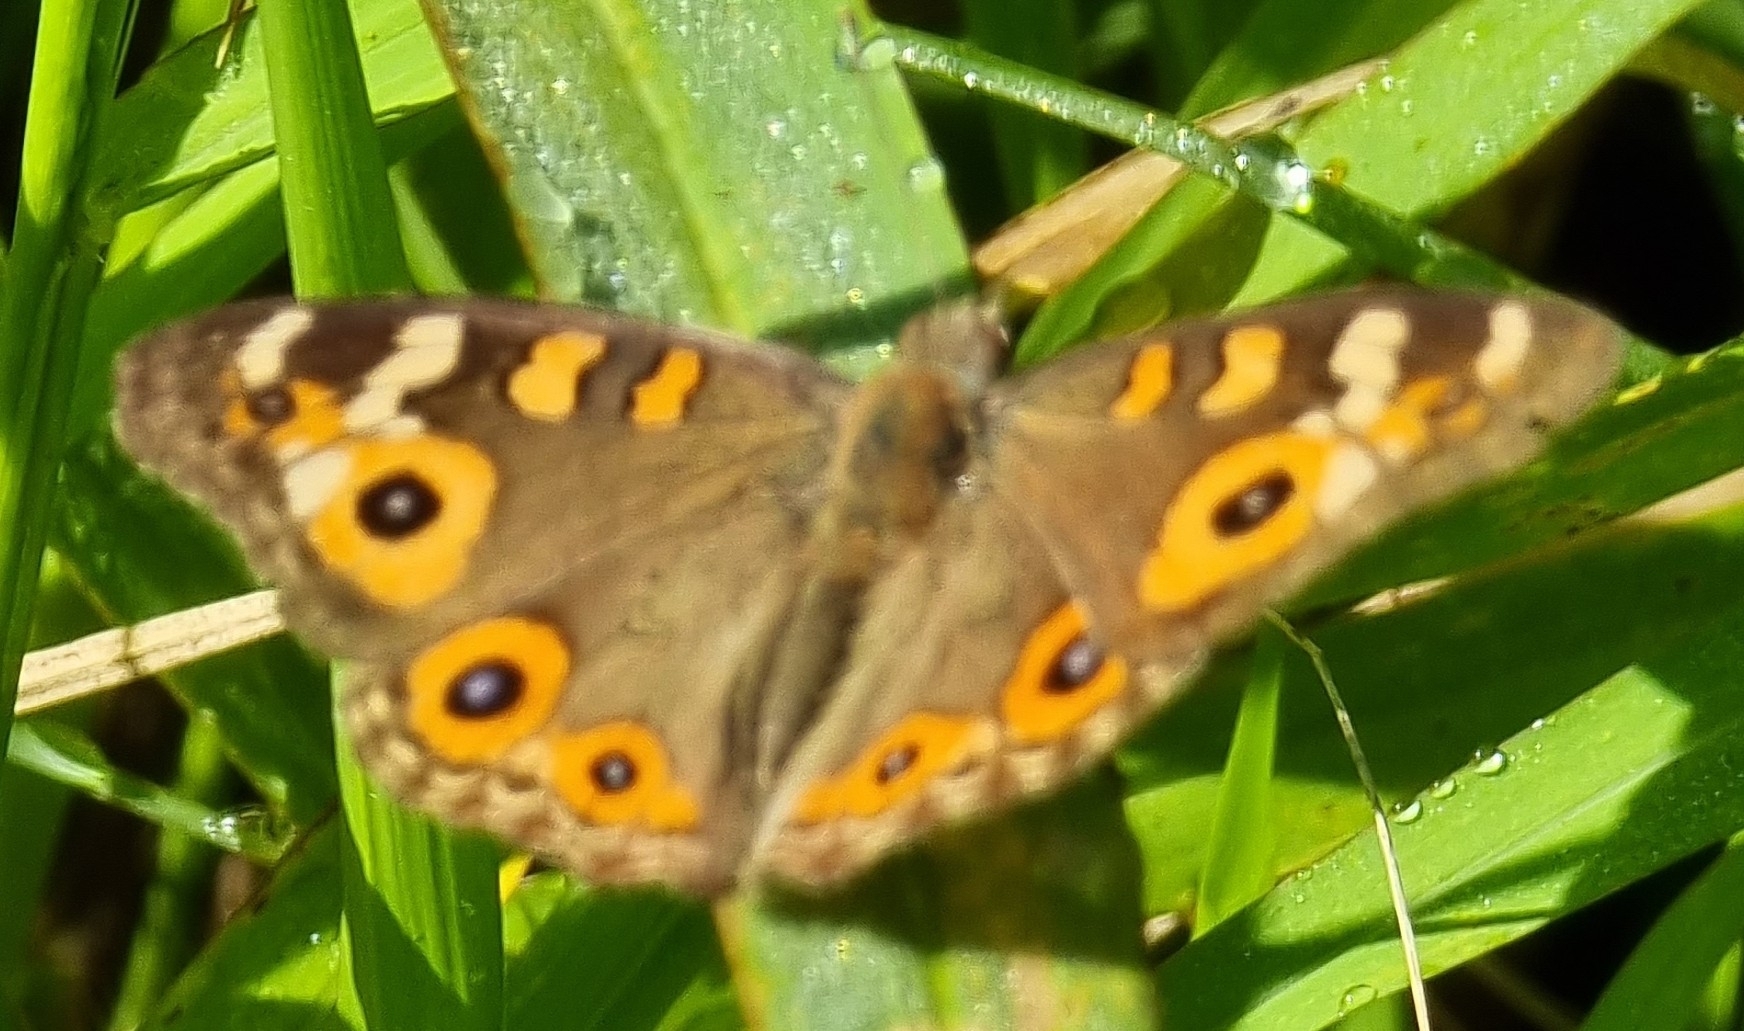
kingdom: Animalia
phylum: Arthropoda
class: Insecta
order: Lepidoptera
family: Nymphalidae
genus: Junonia
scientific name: Junonia villida
